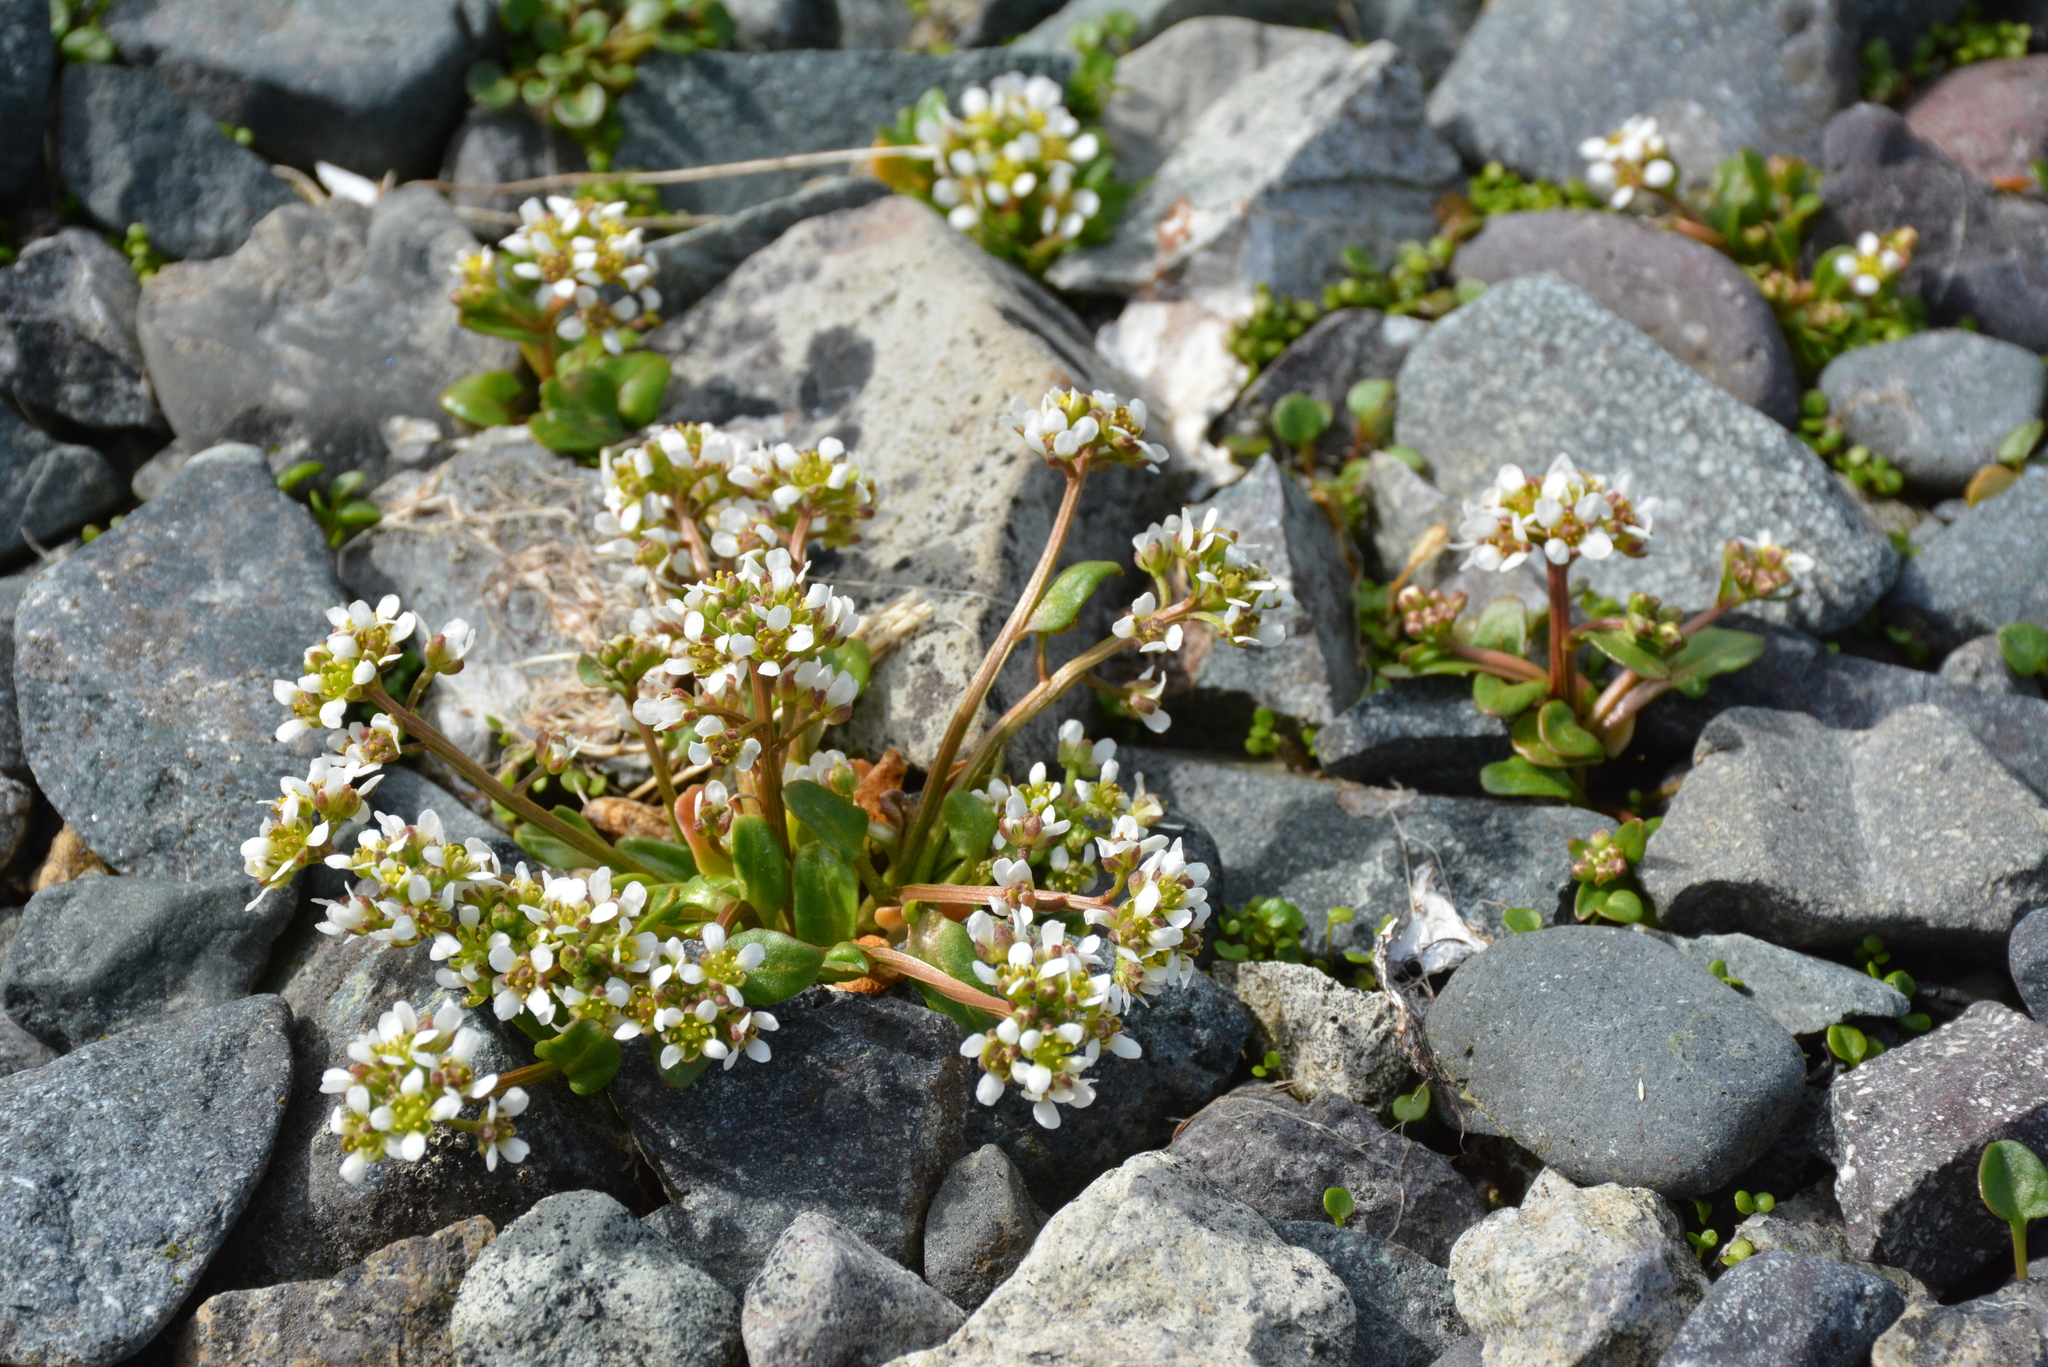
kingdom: Plantae
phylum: Tracheophyta
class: Magnoliopsida
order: Brassicales
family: Brassicaceae
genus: Cochlearia
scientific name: Cochlearia groenlandica
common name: Danish scurvygrass
